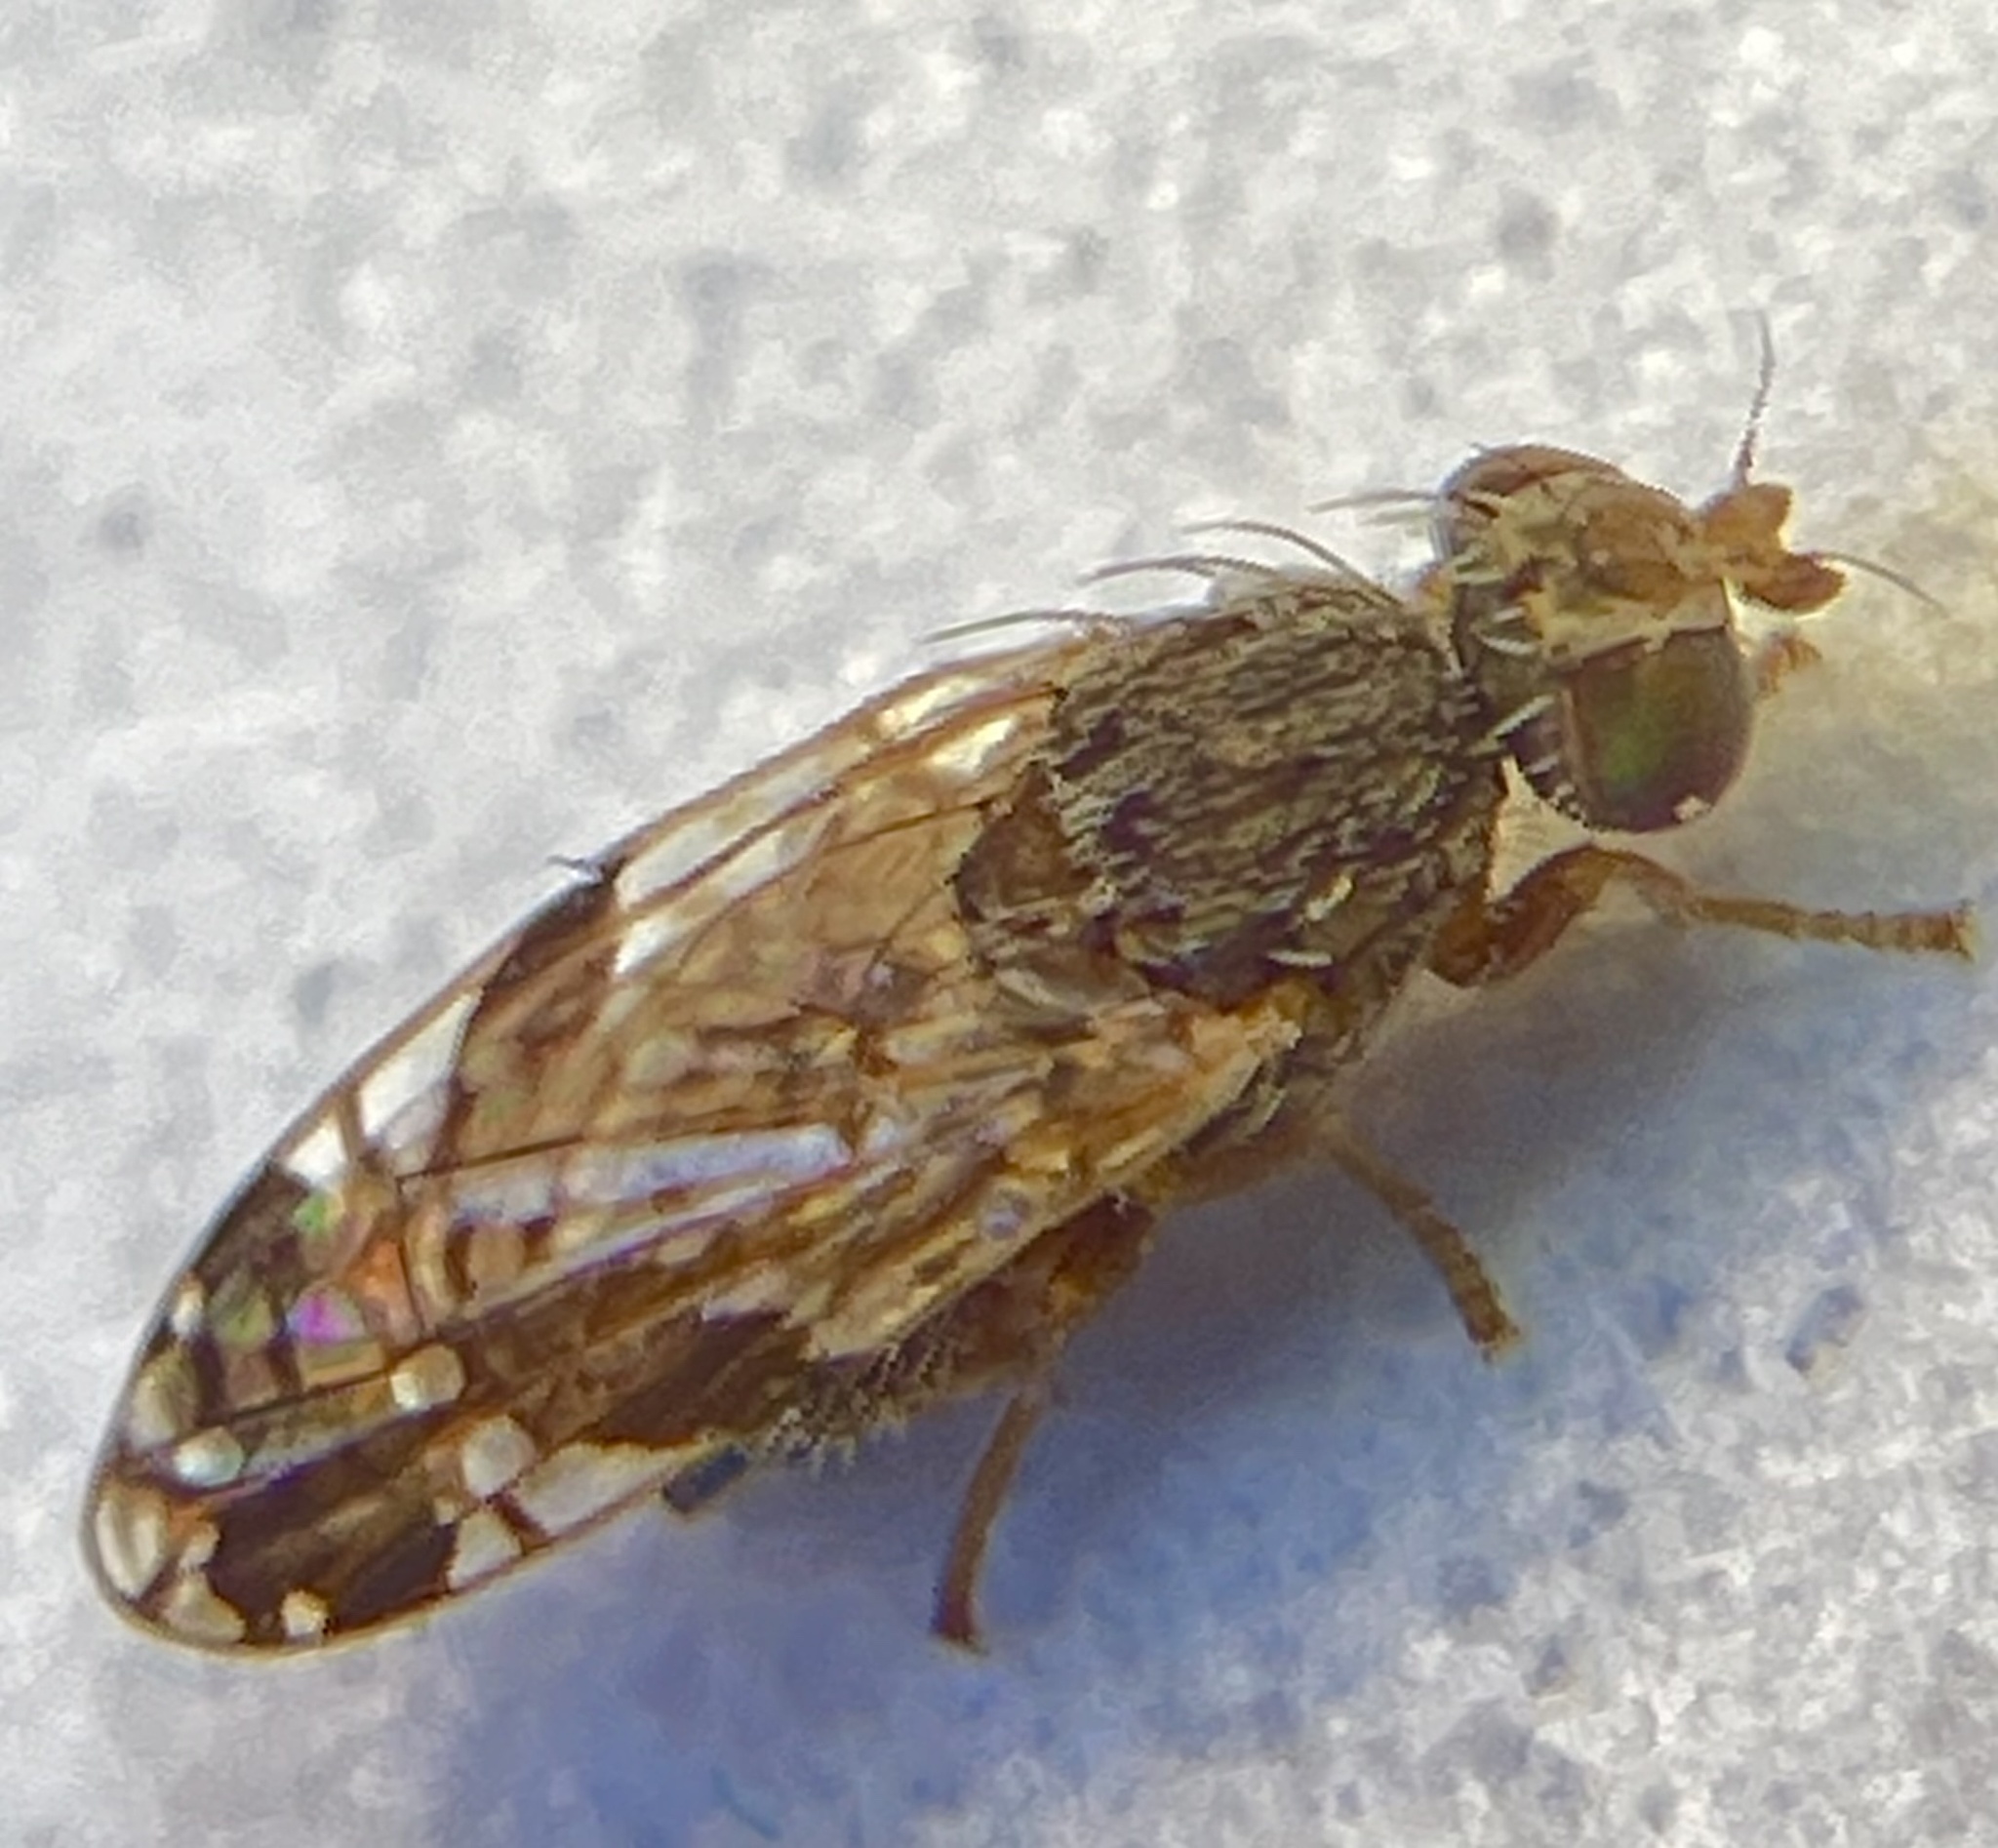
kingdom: Animalia
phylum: Arthropoda
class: Insecta
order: Diptera
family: Tephritidae
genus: Tephritis
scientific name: Tephritis subpura
